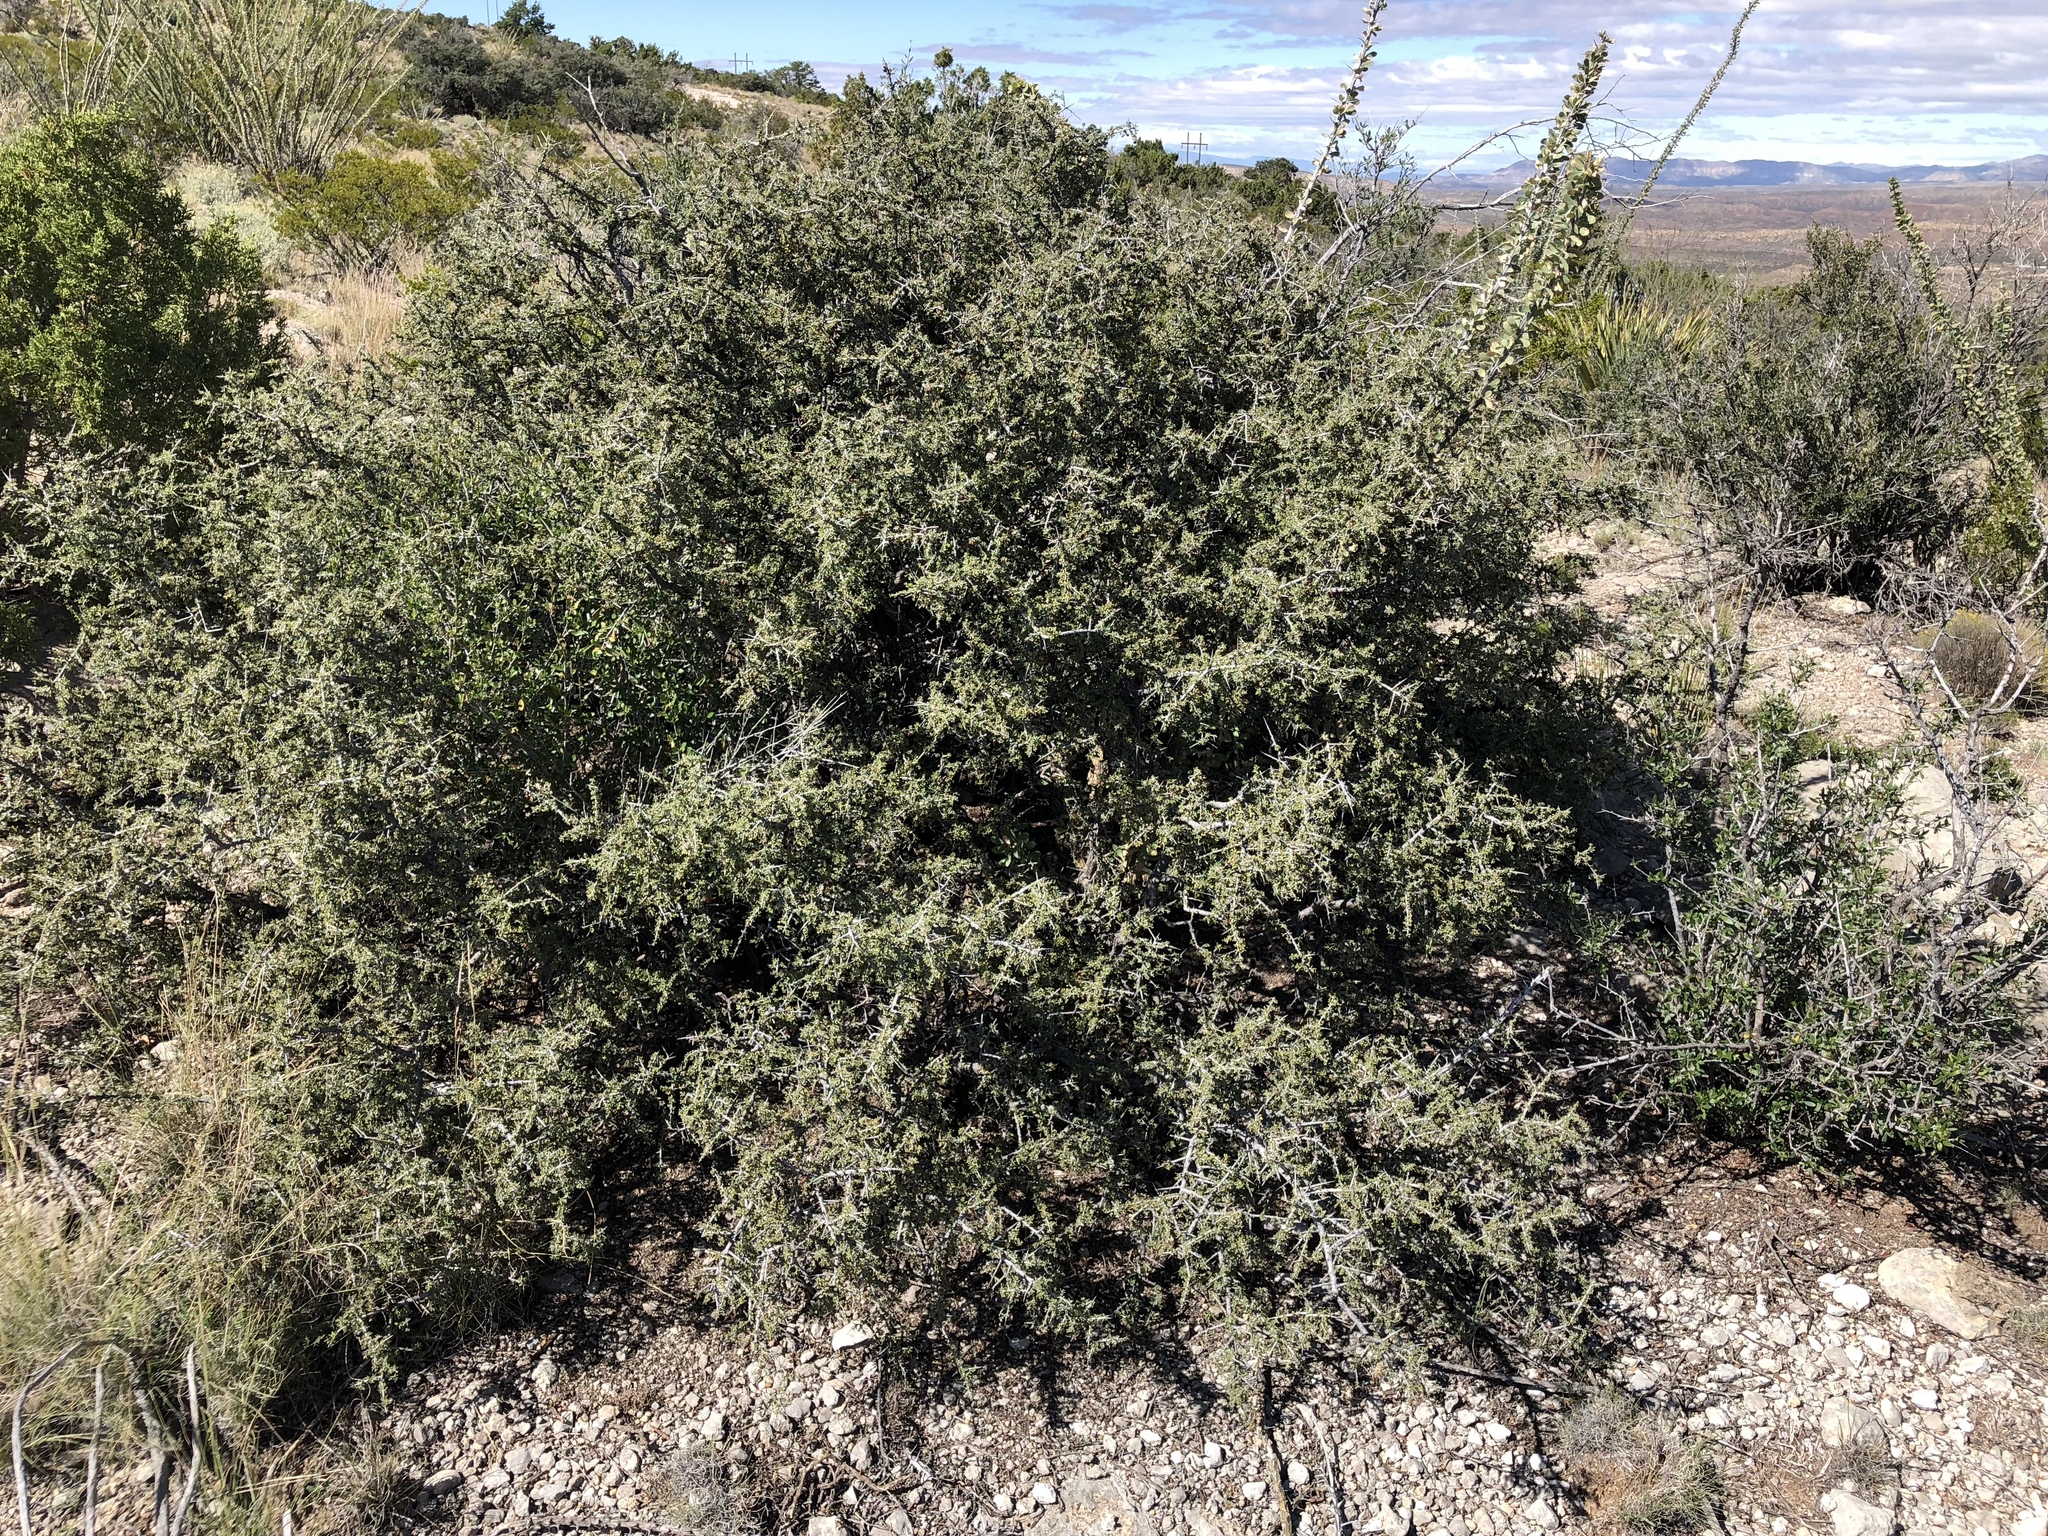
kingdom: Plantae
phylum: Tracheophyta
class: Magnoliopsida
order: Rosales
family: Rhamnaceae
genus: Condalia
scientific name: Condalia warnockii
